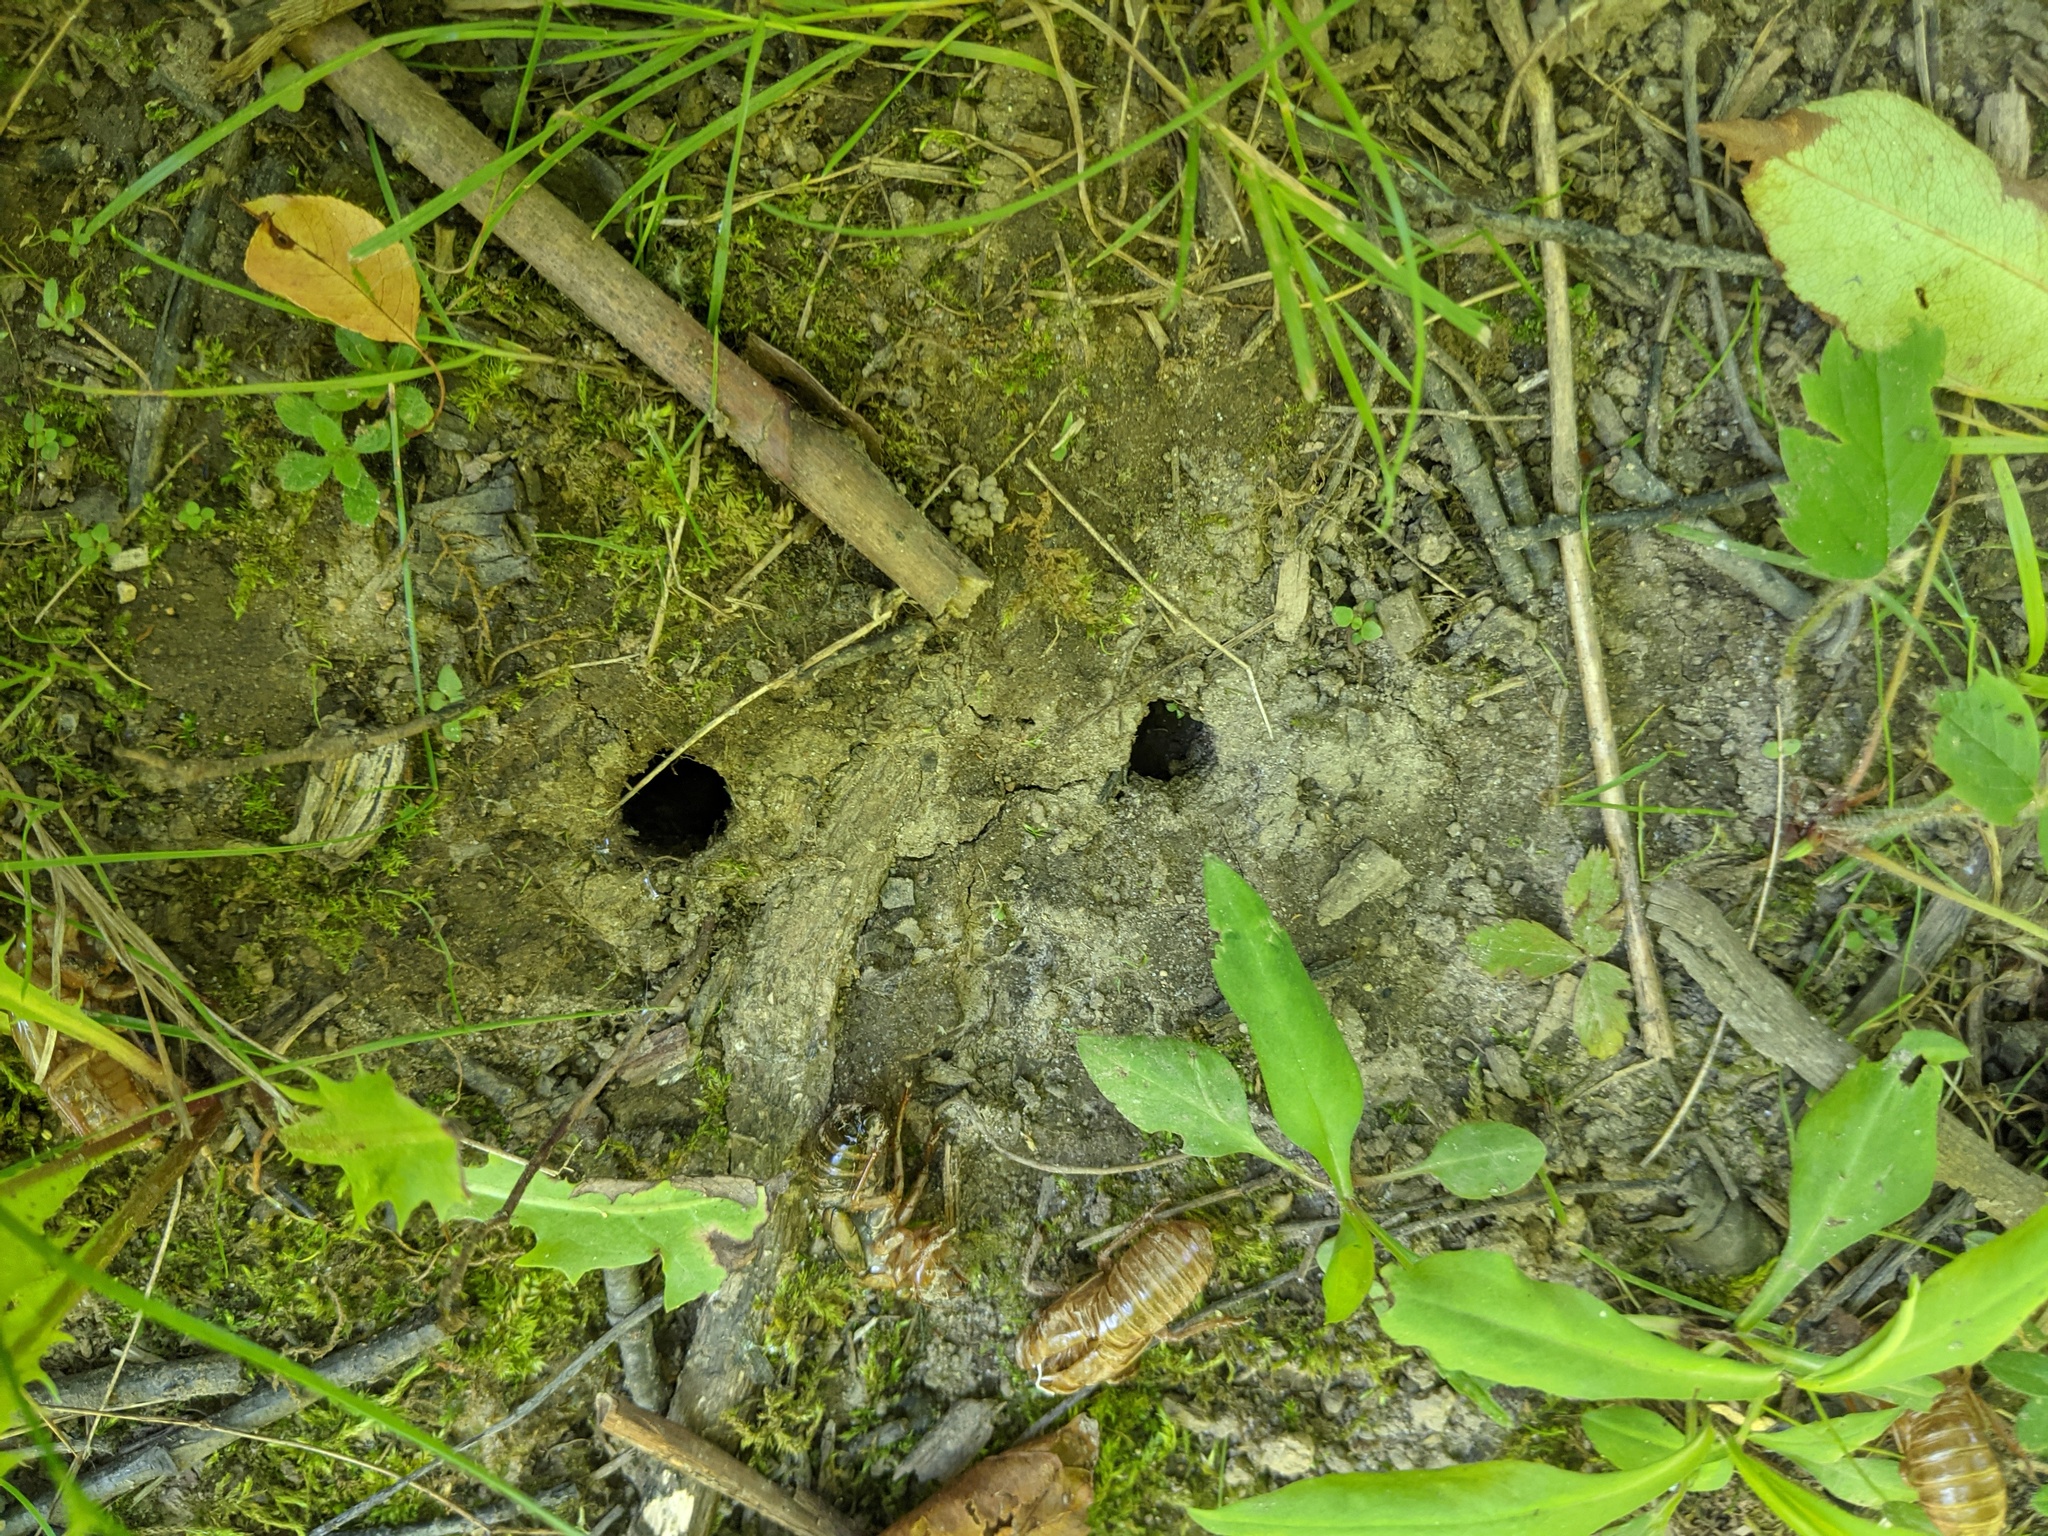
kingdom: Animalia
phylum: Arthropoda
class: Insecta
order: Hemiptera
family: Cicadidae
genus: Magicicada
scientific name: Magicicada septendecim
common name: Periodical cicada
